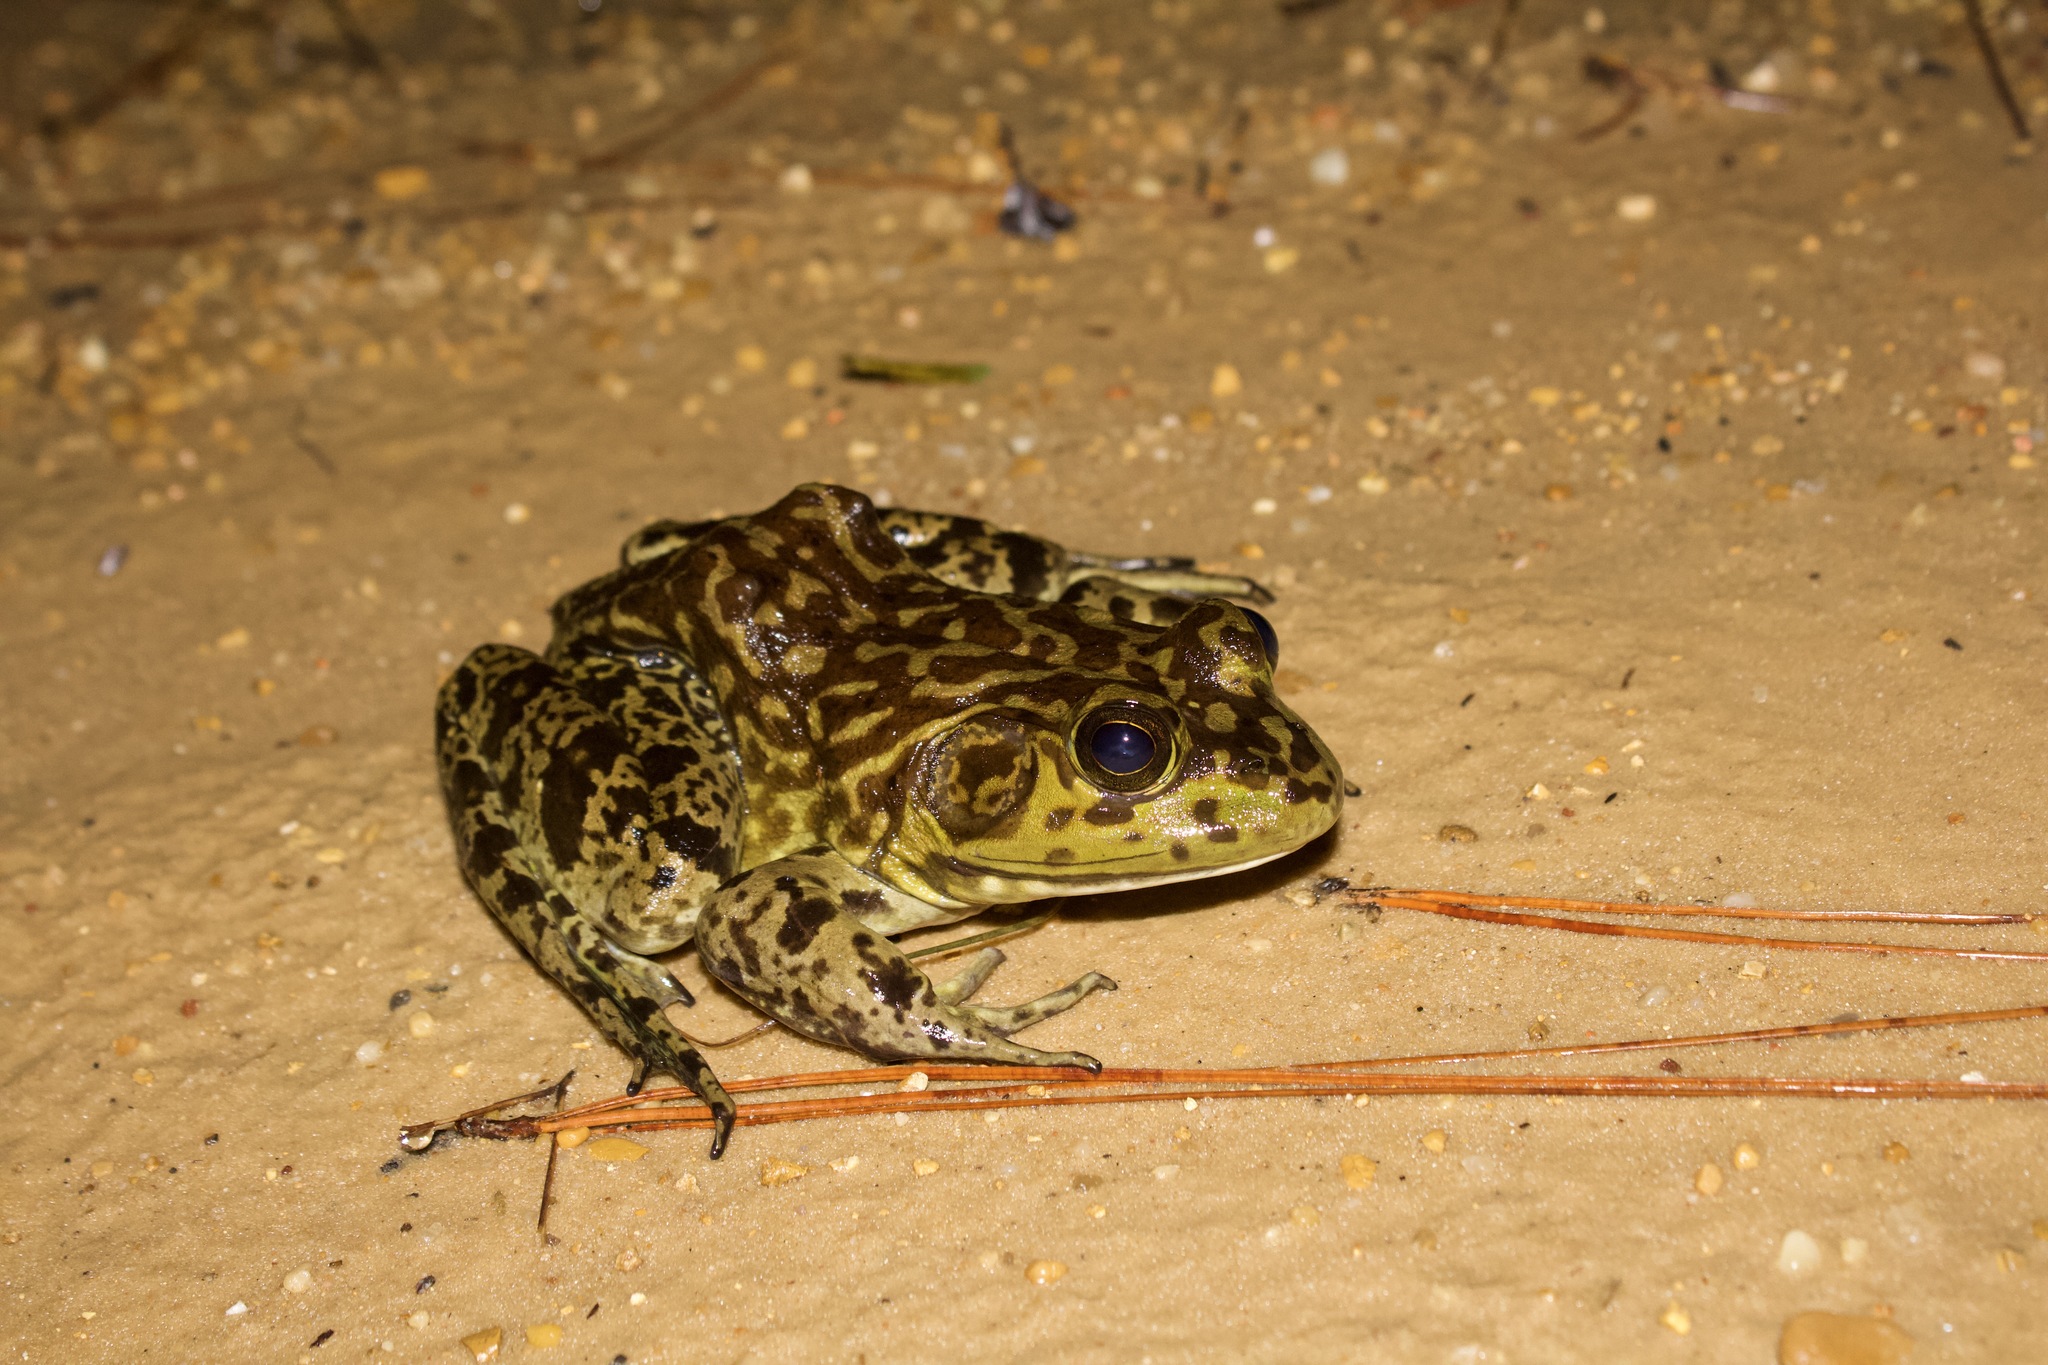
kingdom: Animalia
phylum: Chordata
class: Amphibia
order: Anura
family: Ranidae
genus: Lithobates
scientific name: Lithobates catesbeianus
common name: American bullfrog
